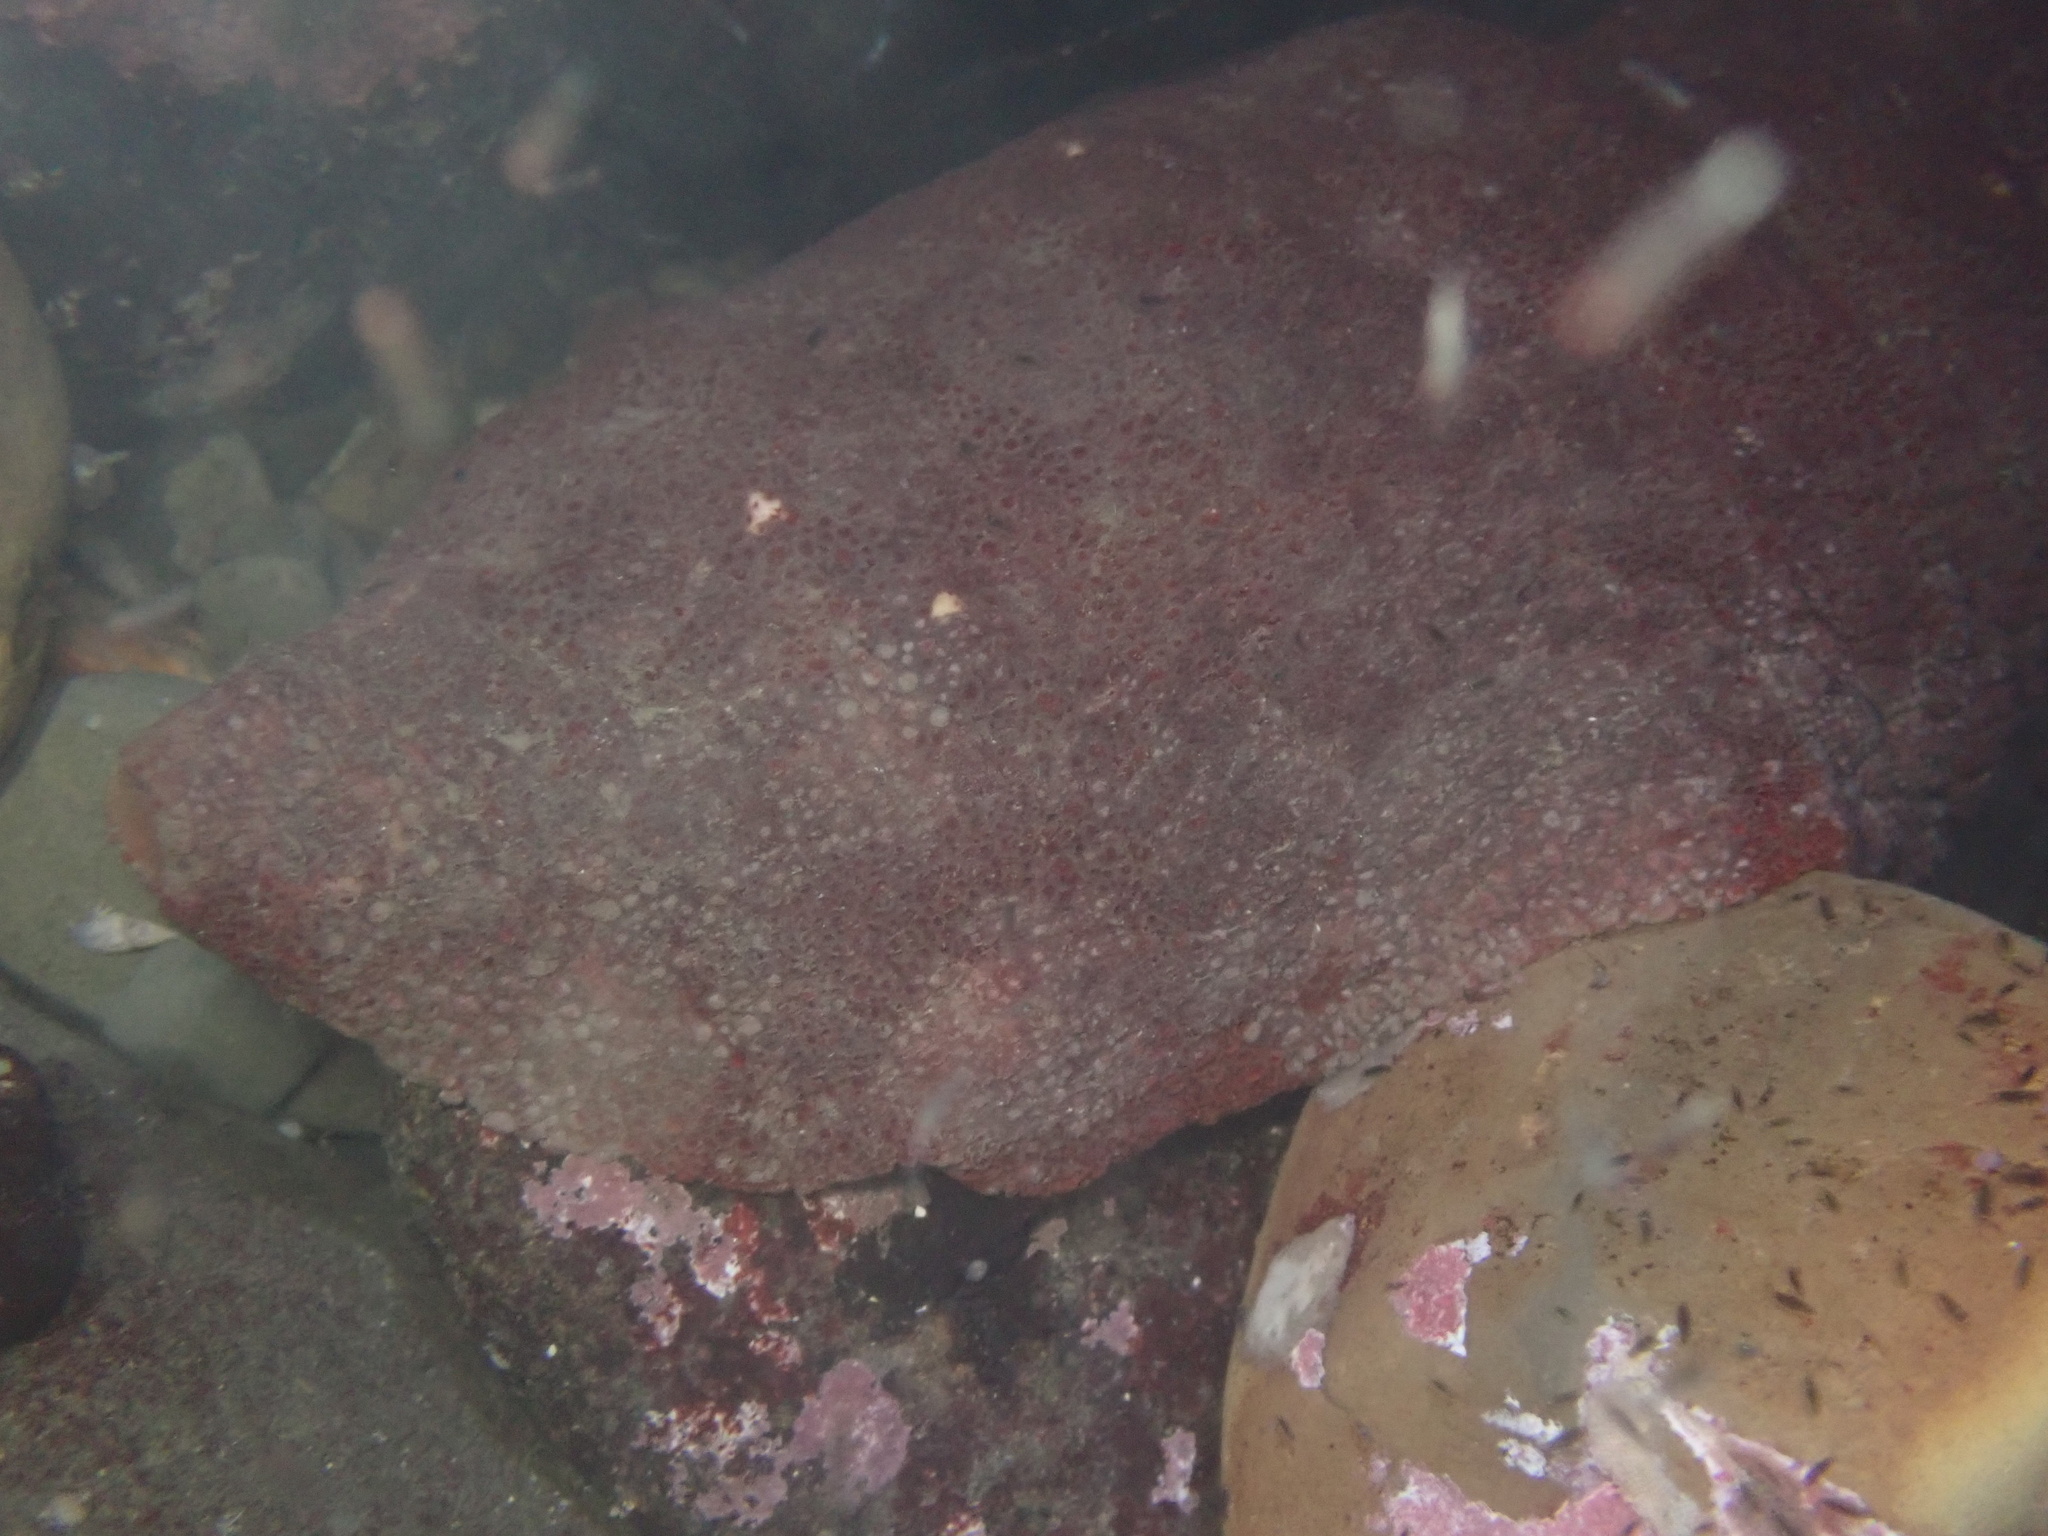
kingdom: Animalia
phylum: Mollusca
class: Polyplacophora
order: Chitonida
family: Acanthochitonidae
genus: Cryptochiton
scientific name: Cryptochiton stelleri
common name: Giant pacific chiton
